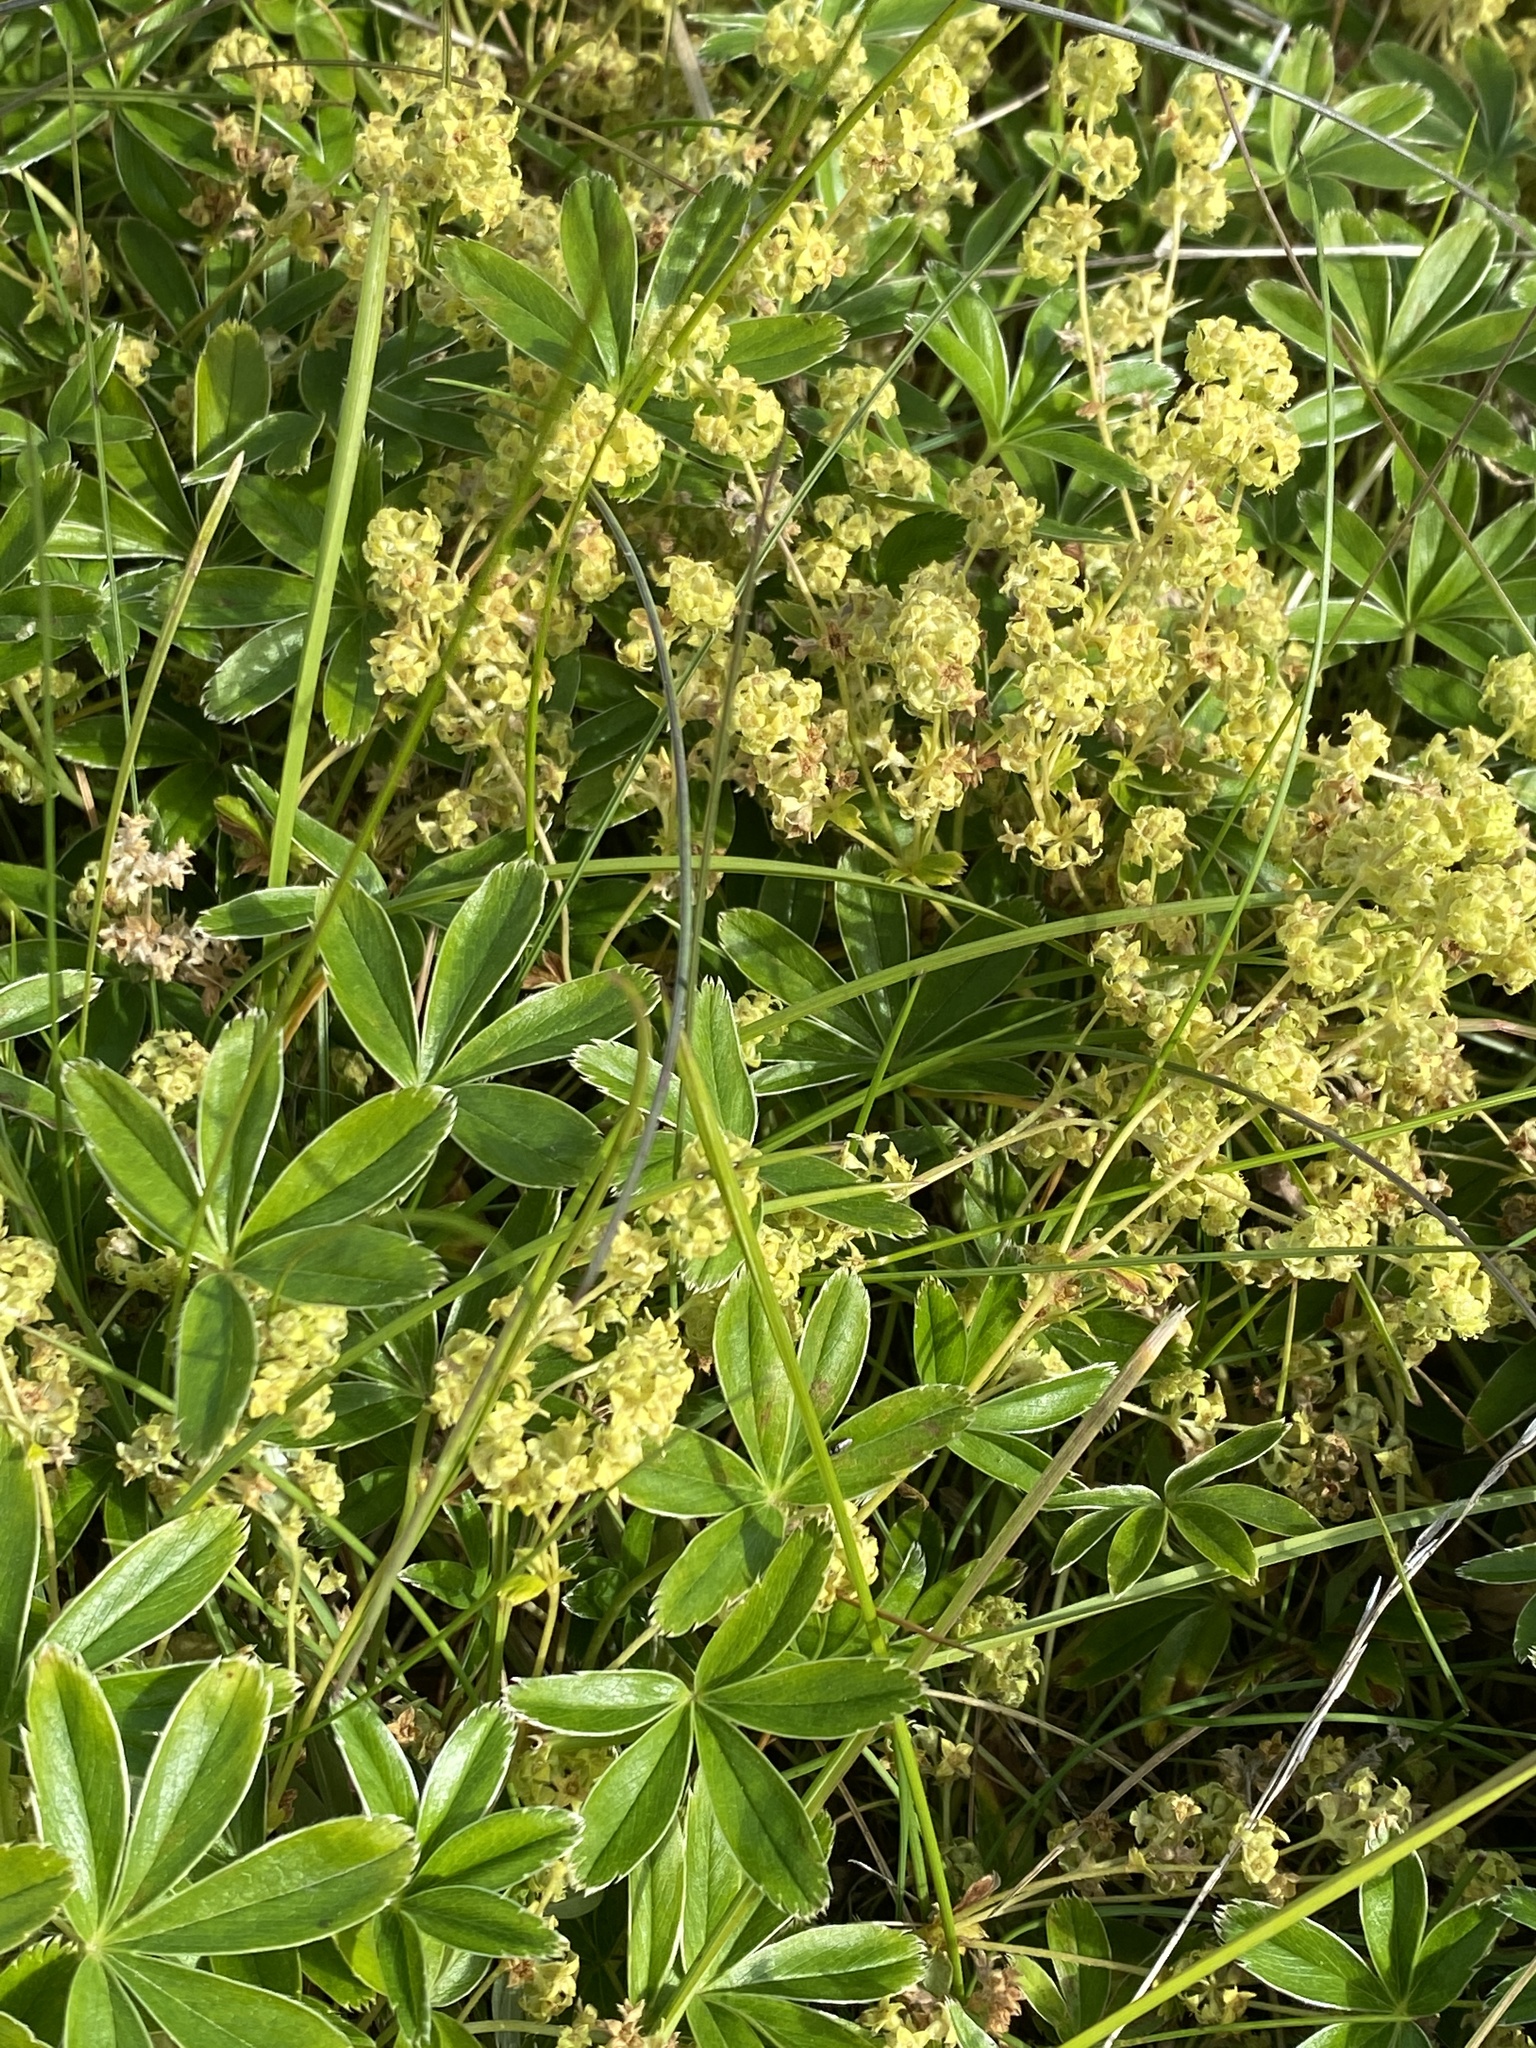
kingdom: Plantae
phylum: Tracheophyta
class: Magnoliopsida
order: Rosales
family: Rosaceae
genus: Alchemilla
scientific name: Alchemilla alpina
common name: Alpine lady's-mantle
